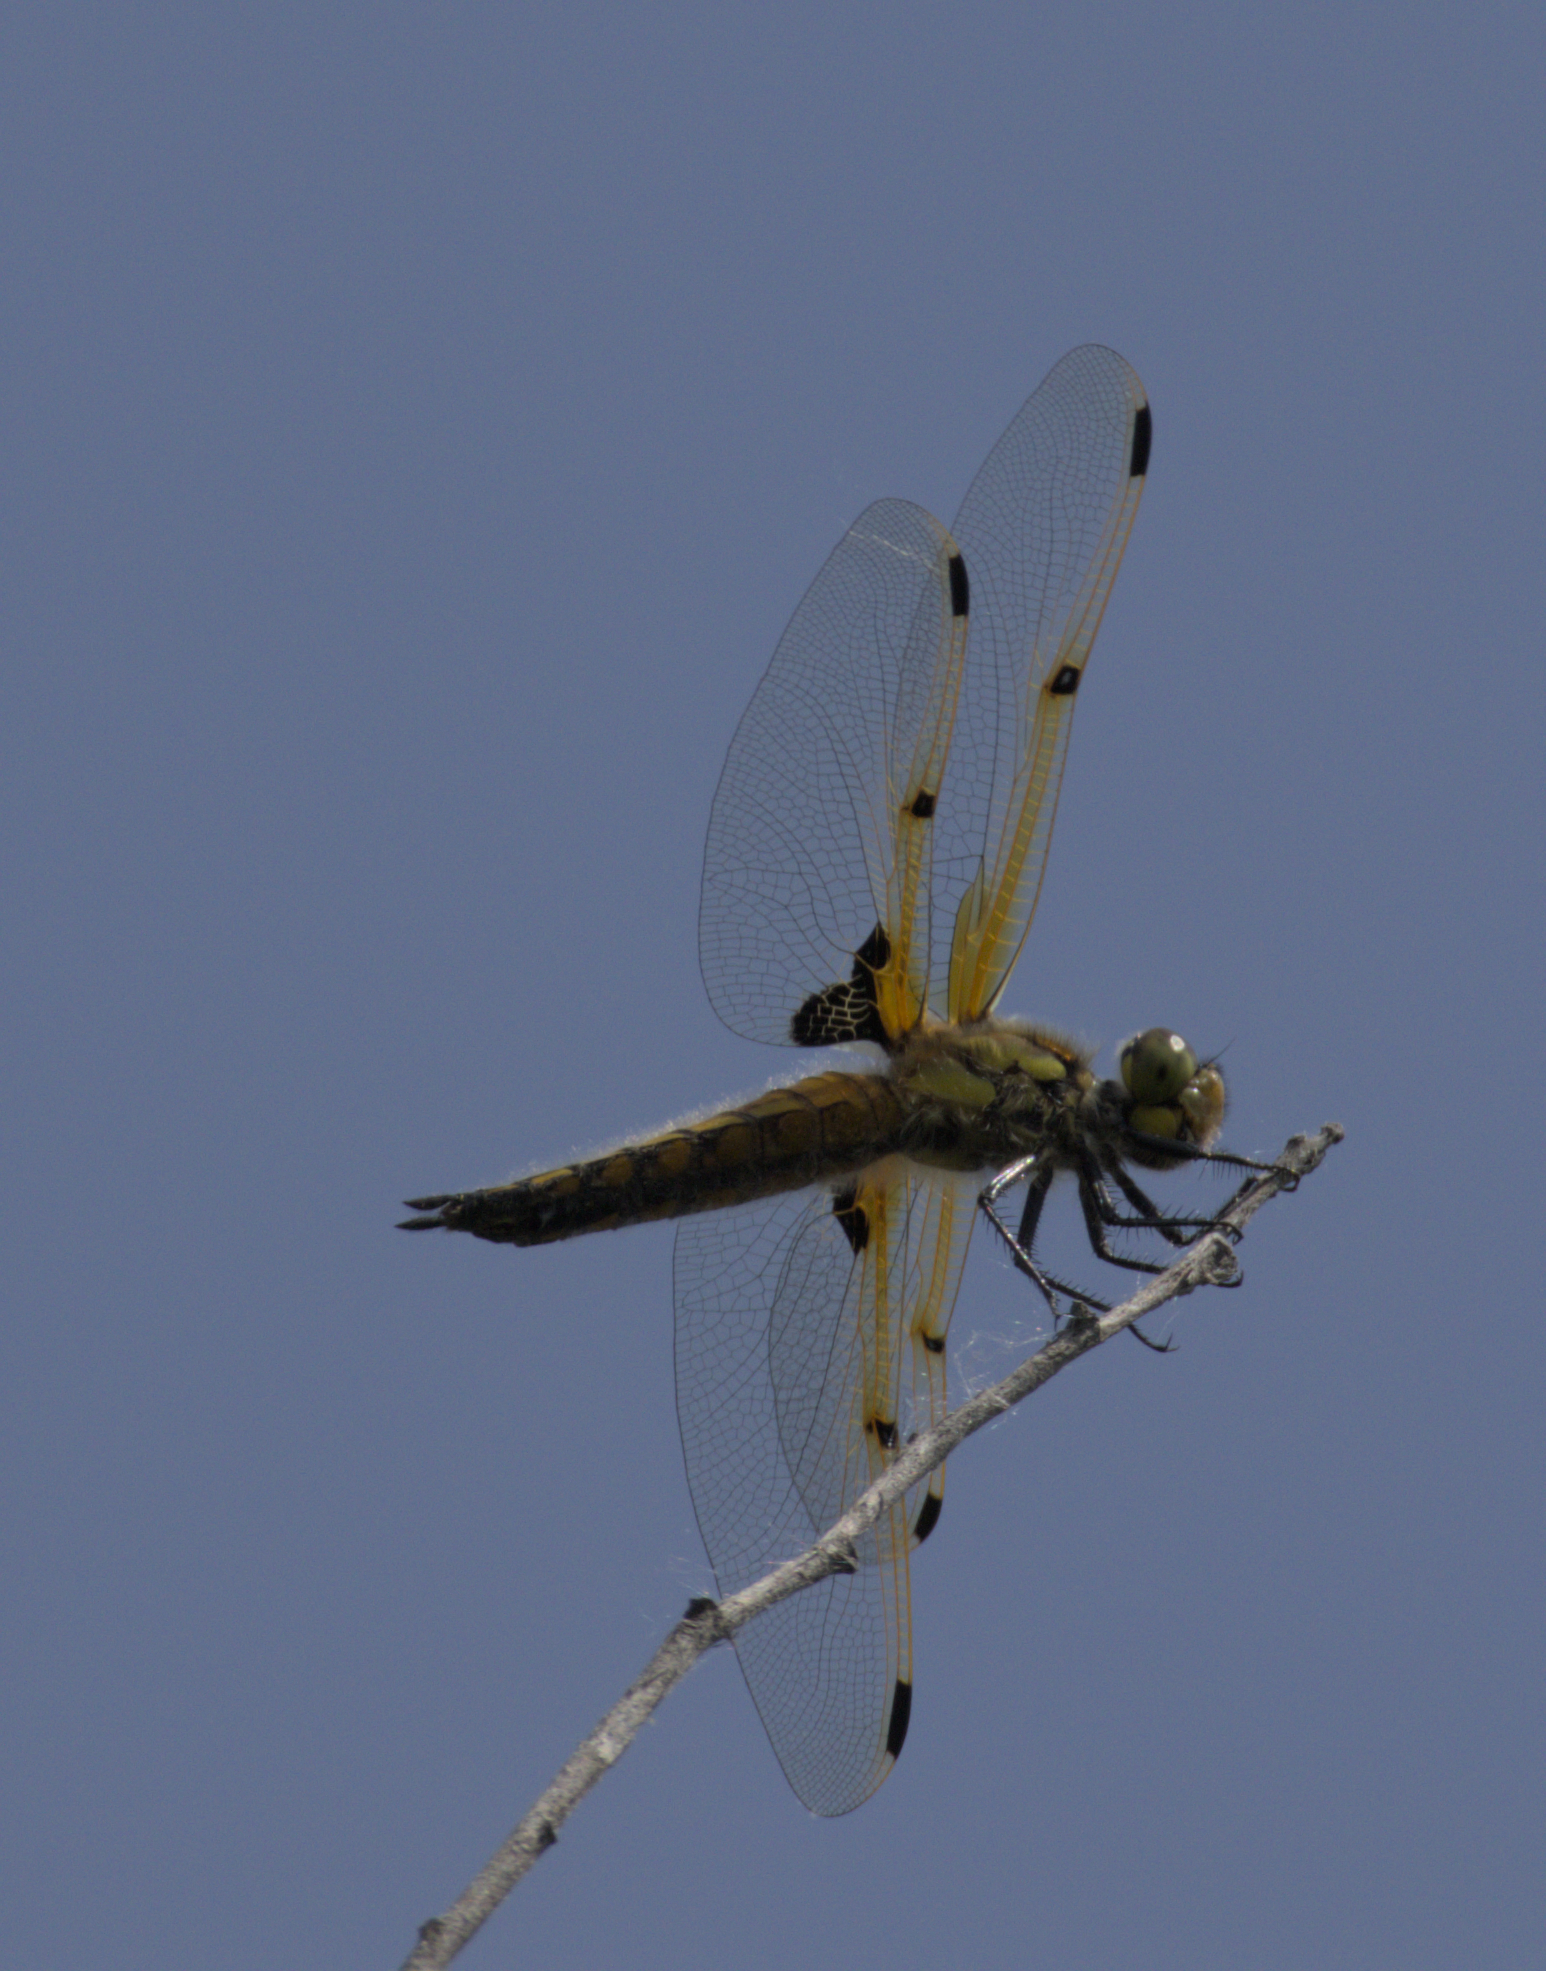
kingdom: Animalia
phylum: Arthropoda
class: Insecta
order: Odonata
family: Libellulidae
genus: Libellula
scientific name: Libellula quadrimaculata
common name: Four-spotted chaser
